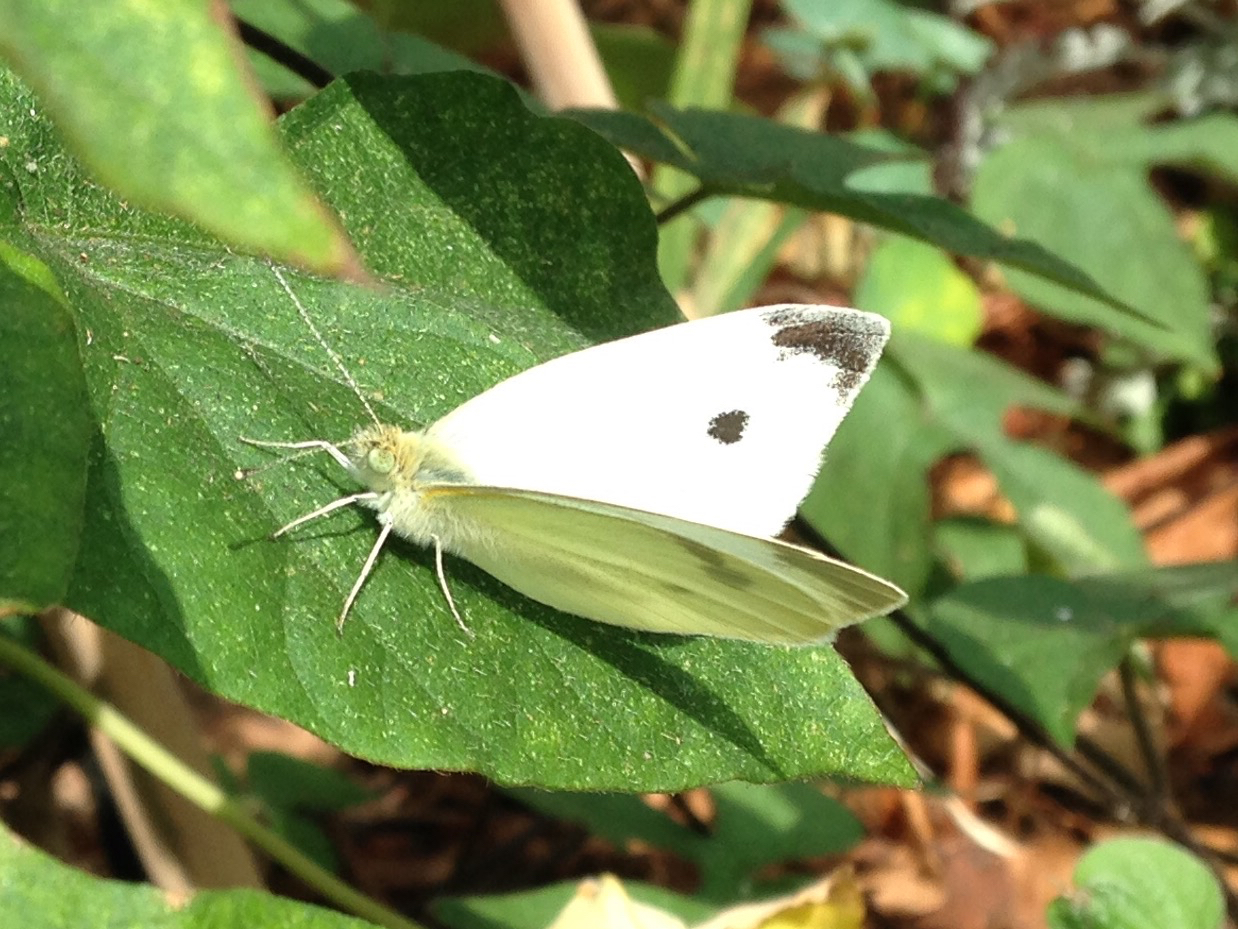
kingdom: Animalia
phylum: Arthropoda
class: Insecta
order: Lepidoptera
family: Pieridae
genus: Pieris
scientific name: Pieris rapae
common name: Small white
